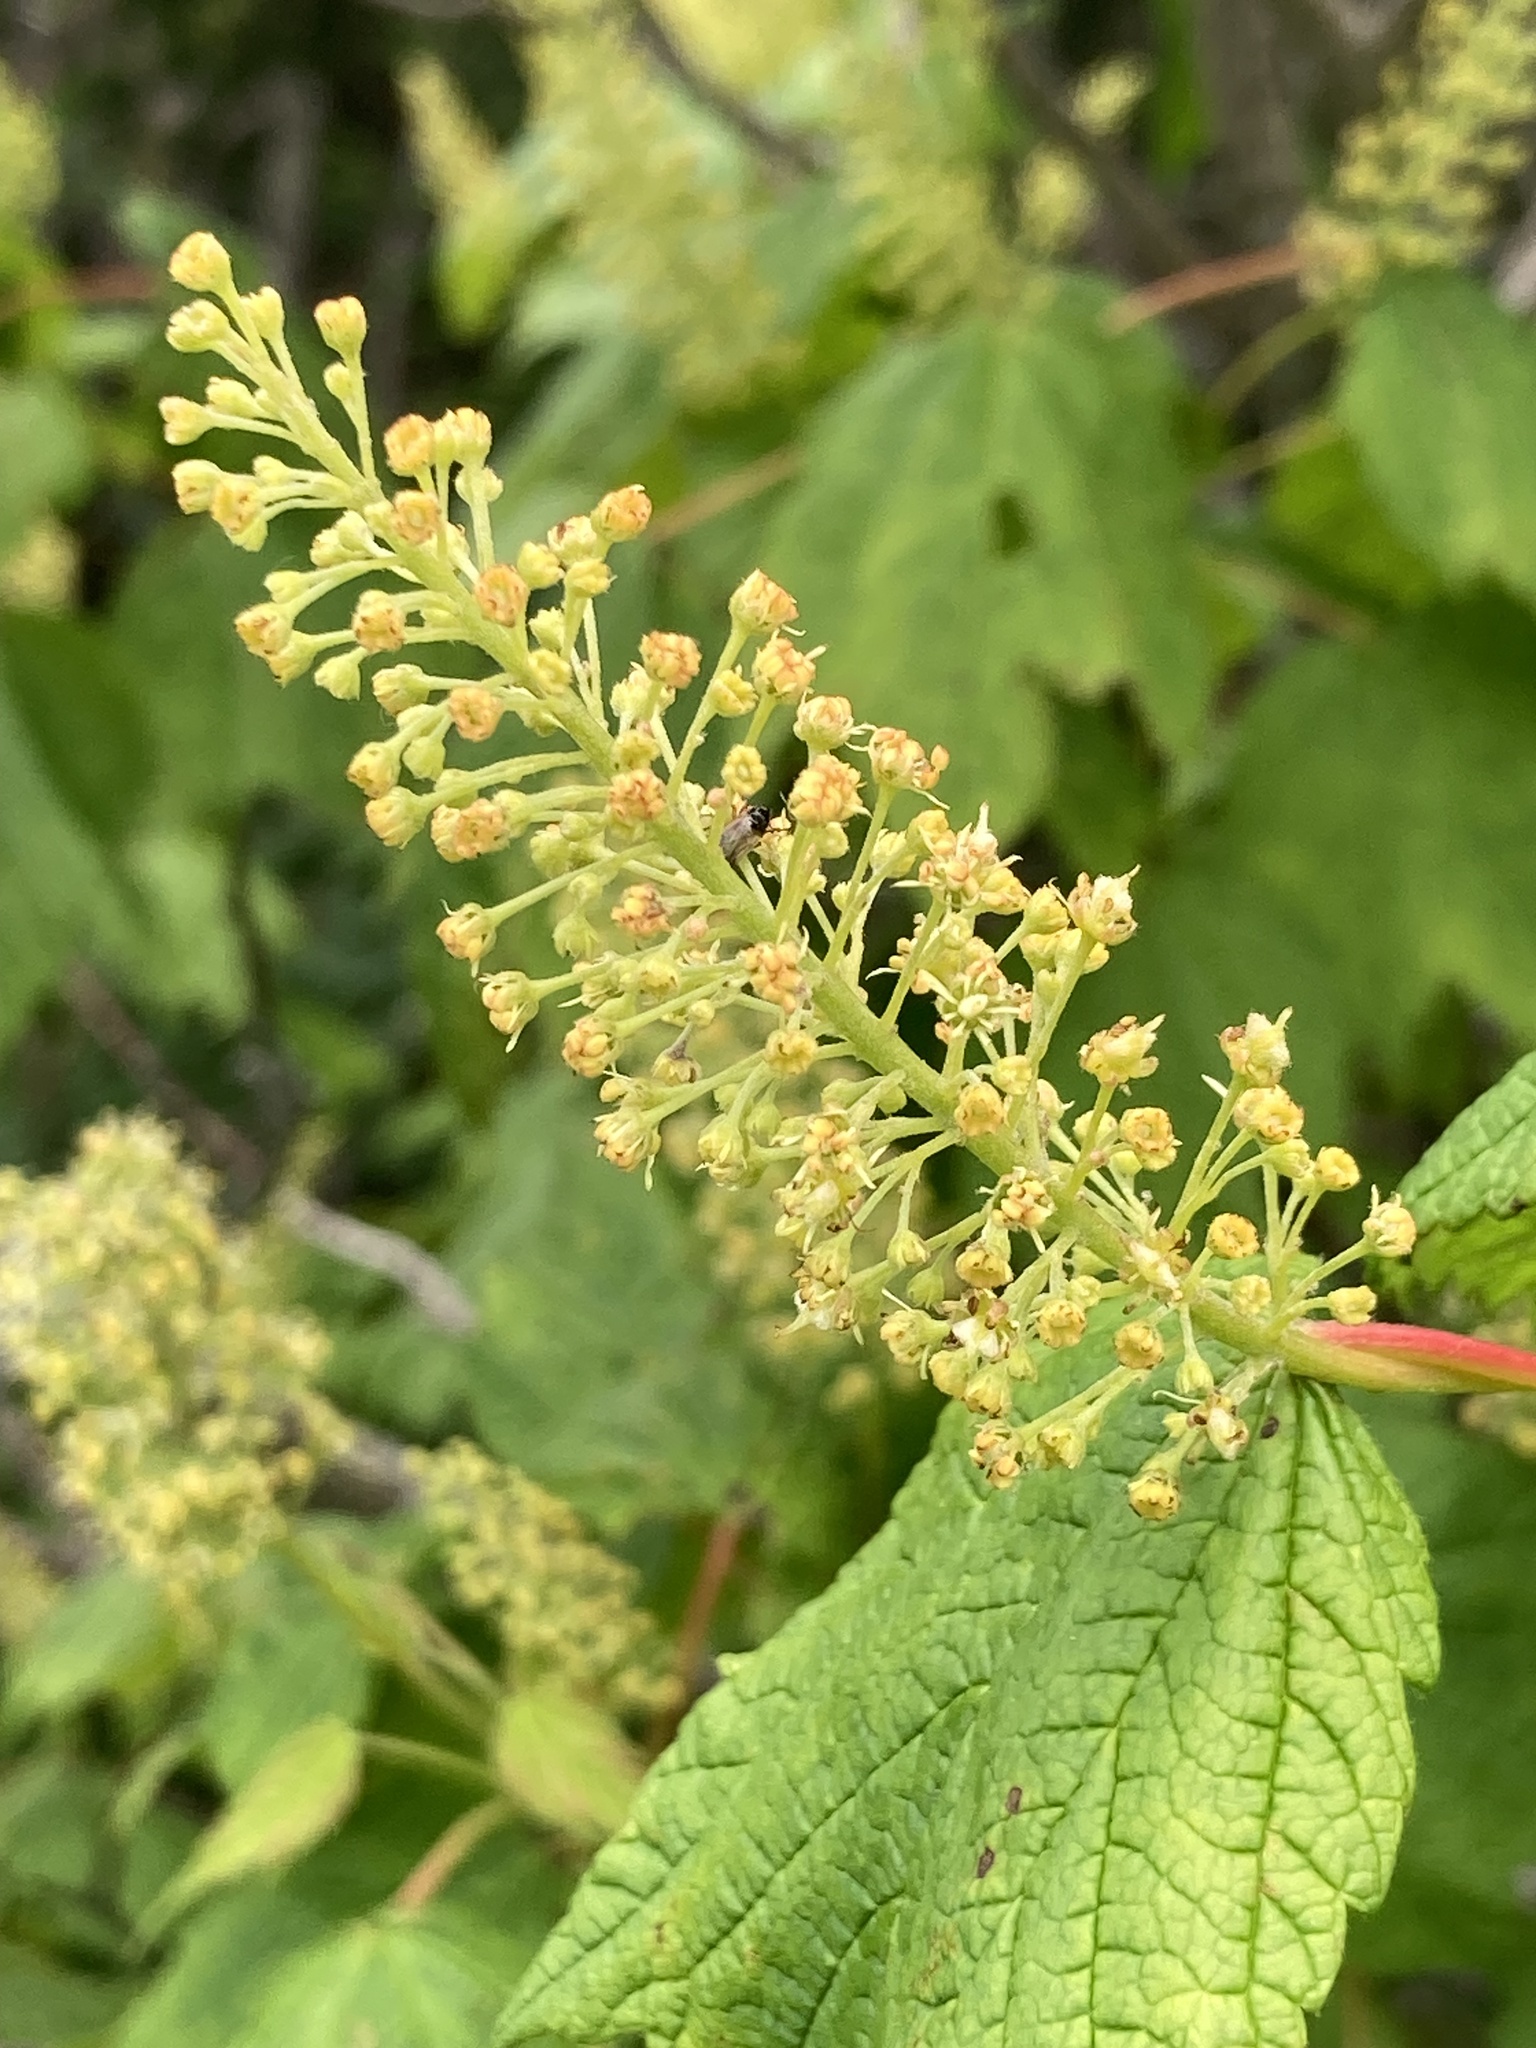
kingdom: Plantae
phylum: Tracheophyta
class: Magnoliopsida
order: Sapindales
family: Sapindaceae
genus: Acer
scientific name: Acer spicatum
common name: Mountain maple
